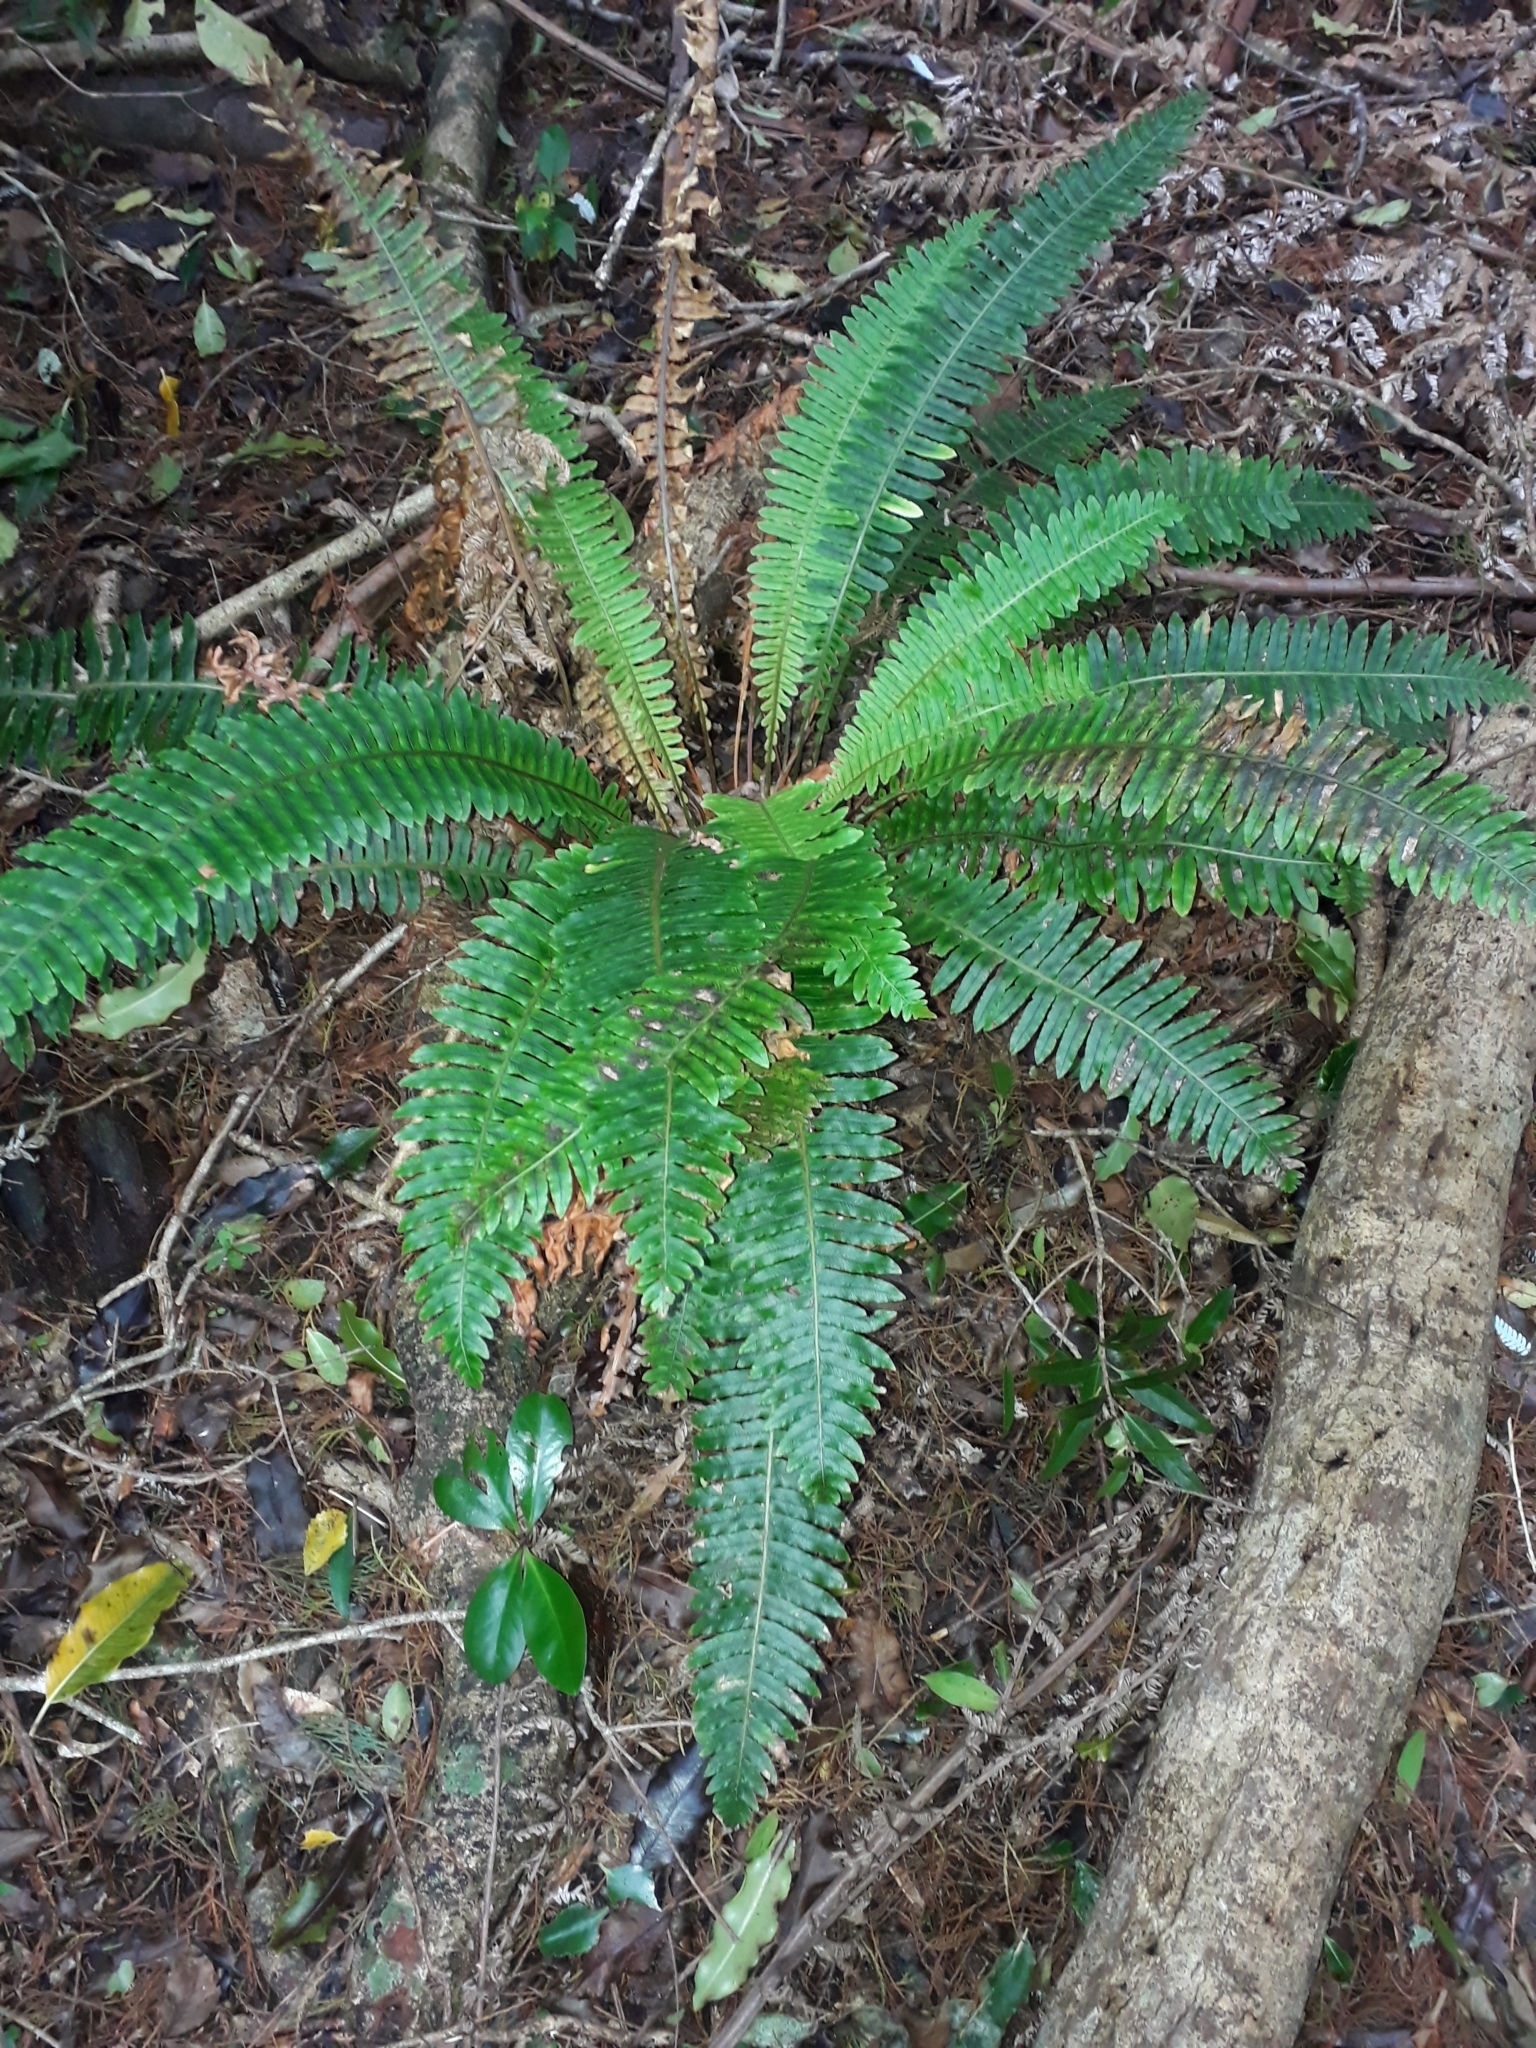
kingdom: Plantae
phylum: Tracheophyta
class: Polypodiopsida
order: Polypodiales
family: Blechnaceae
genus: Lomaria
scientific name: Lomaria discolor
